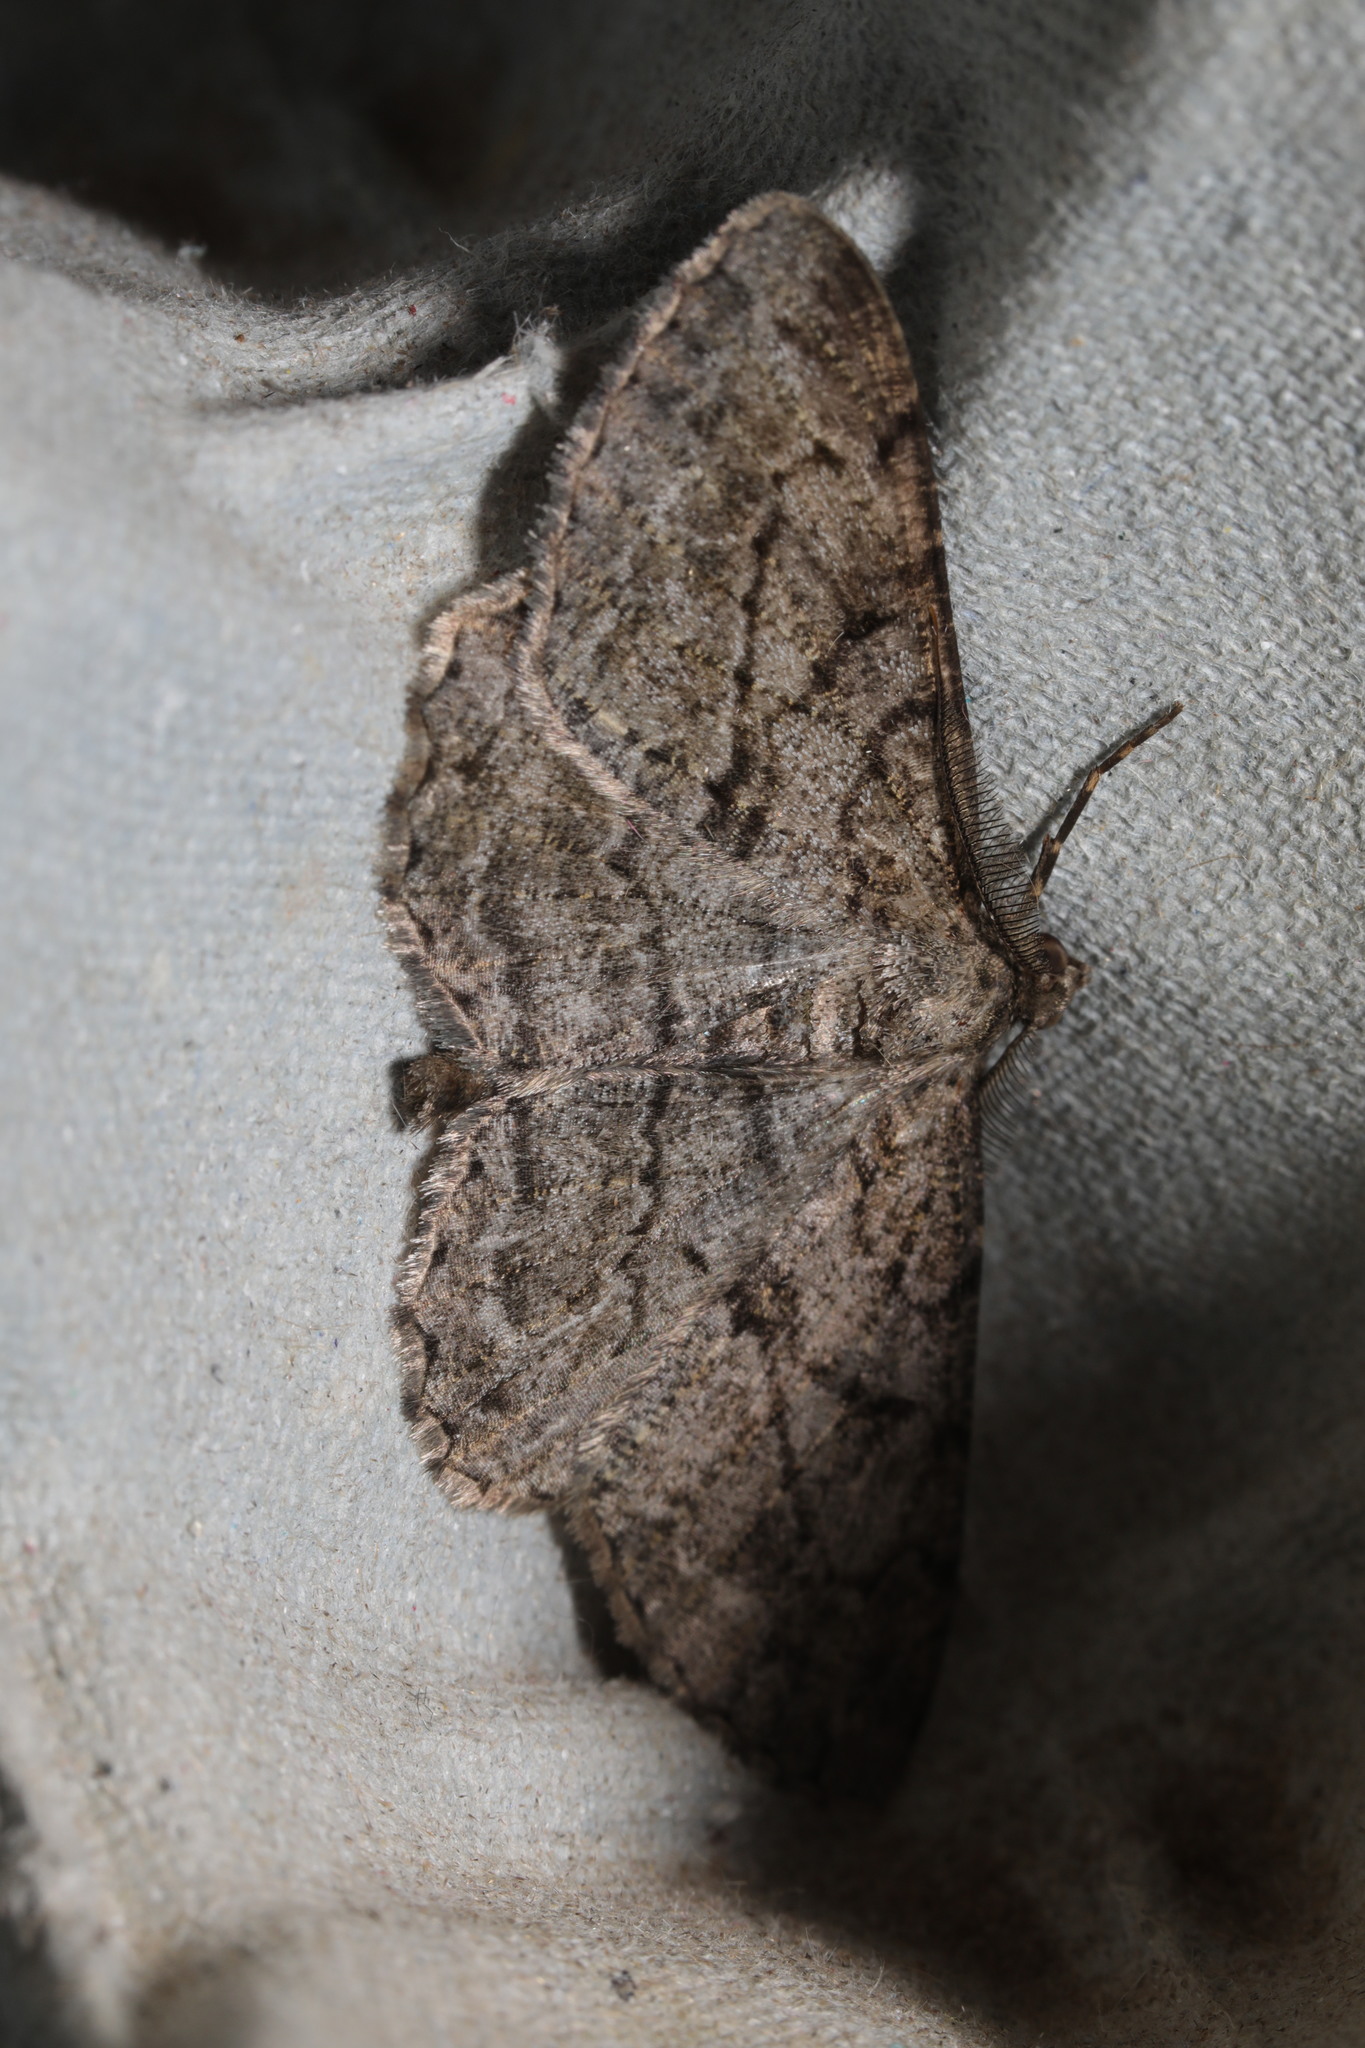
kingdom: Animalia
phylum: Arthropoda
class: Insecta
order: Lepidoptera
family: Geometridae
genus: Peribatodes
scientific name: Peribatodes rhomboidaria
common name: Willow beauty
